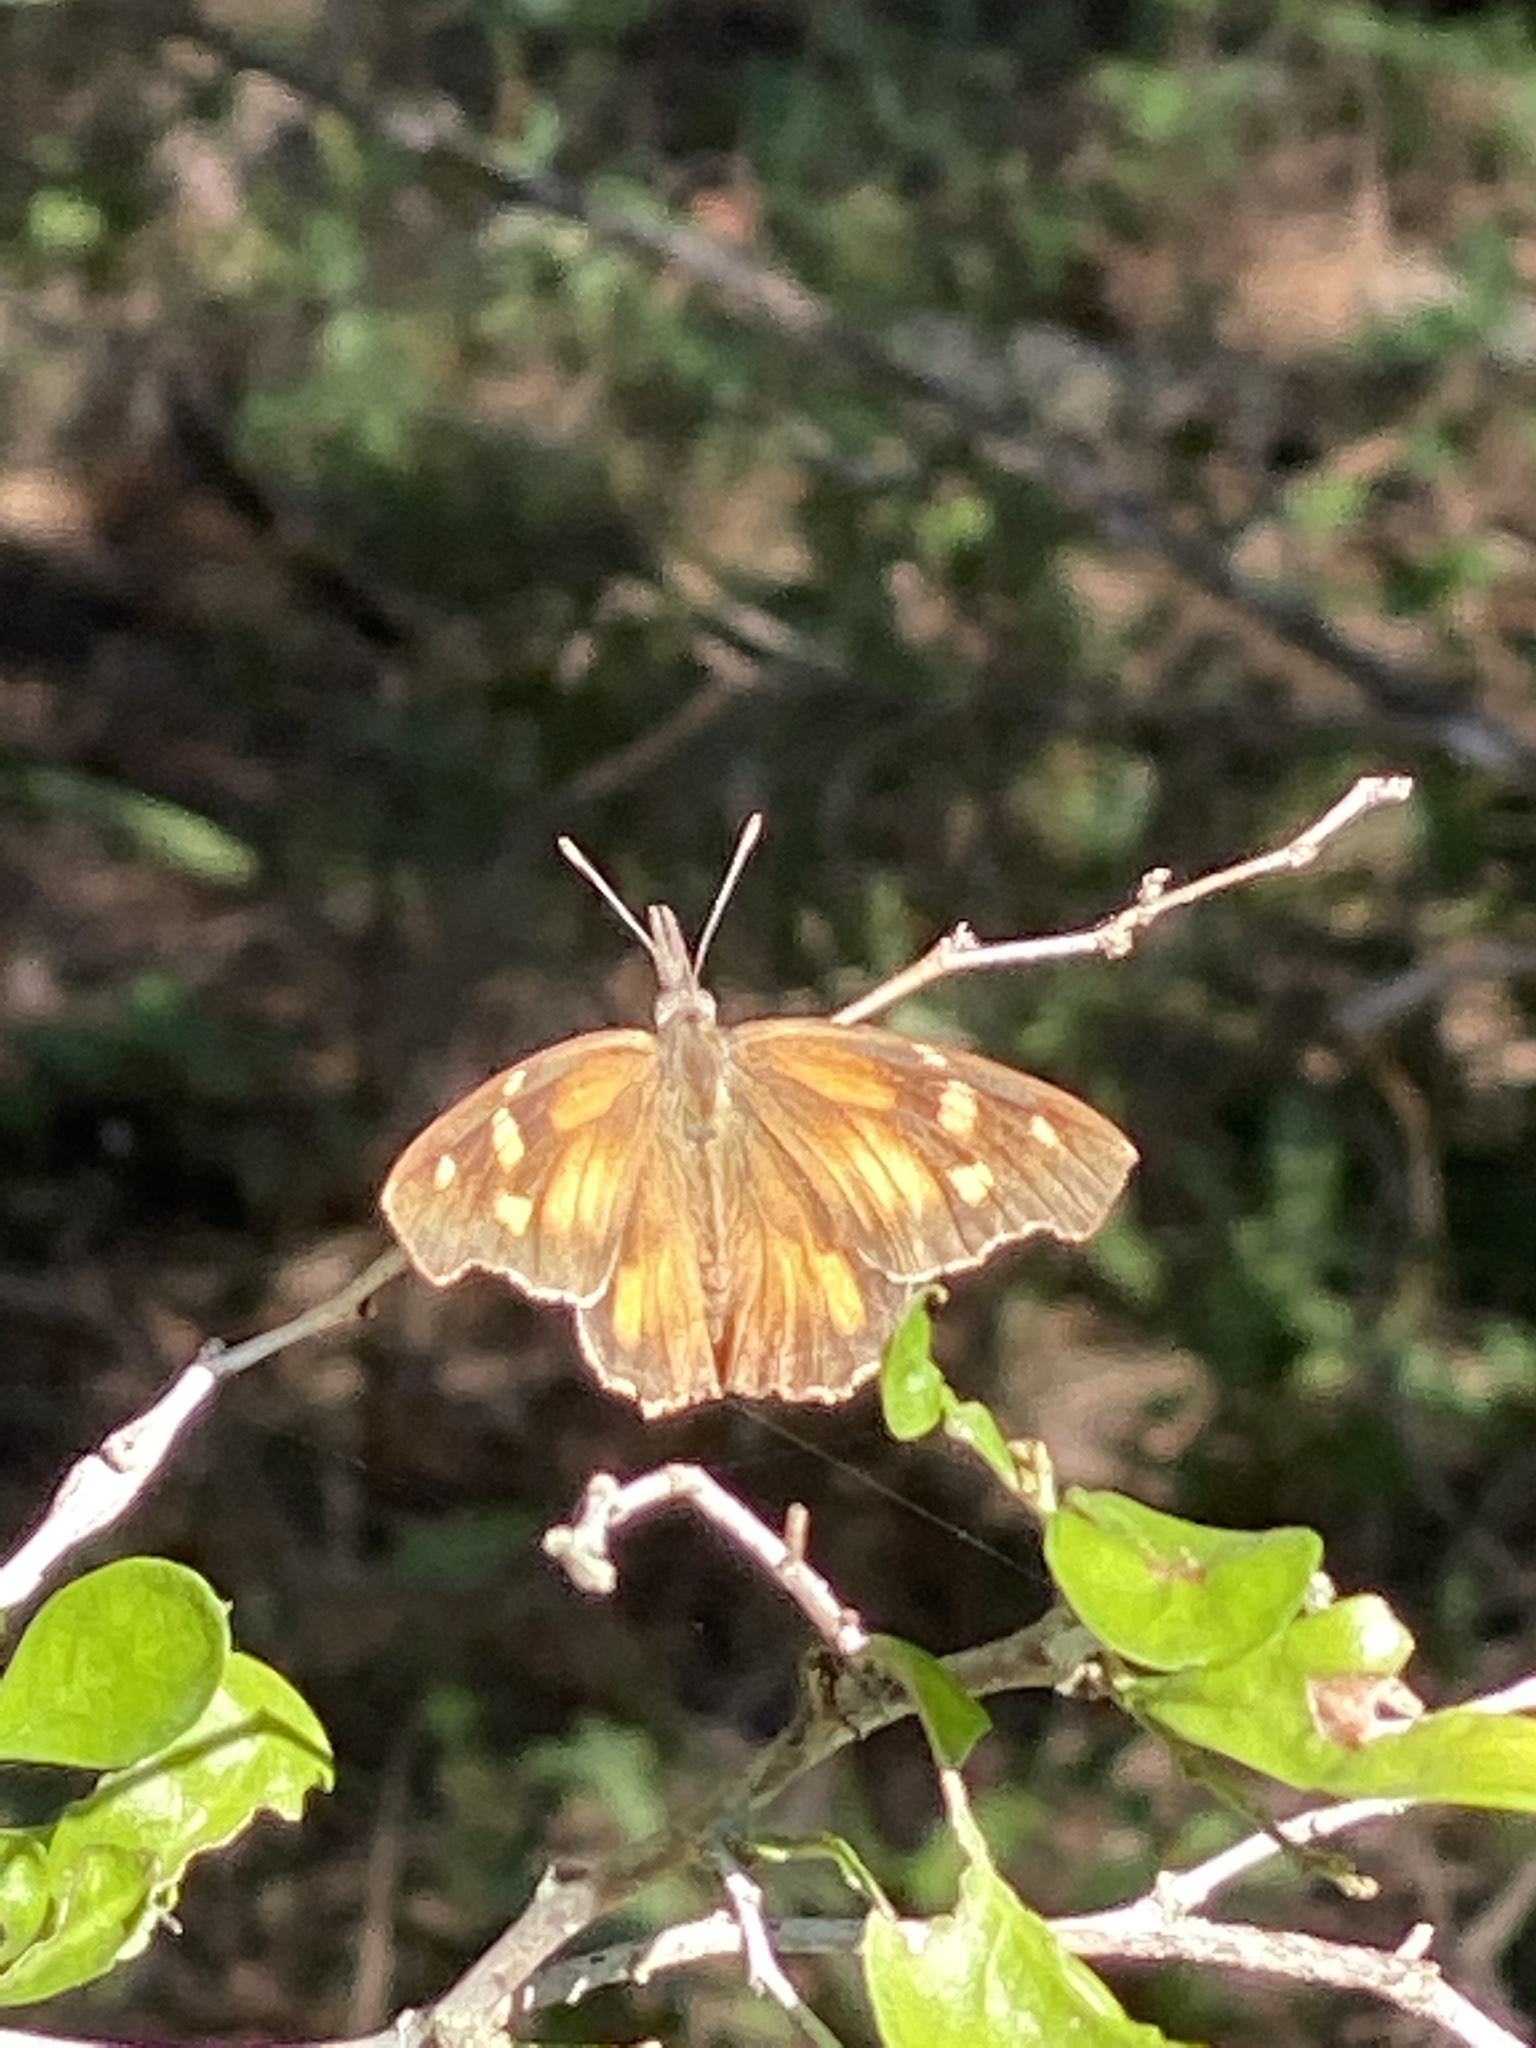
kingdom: Animalia
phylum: Arthropoda
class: Insecta
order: Lepidoptera
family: Nymphalidae
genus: Libytheana
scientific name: Libytheana carinenta
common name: American snout
